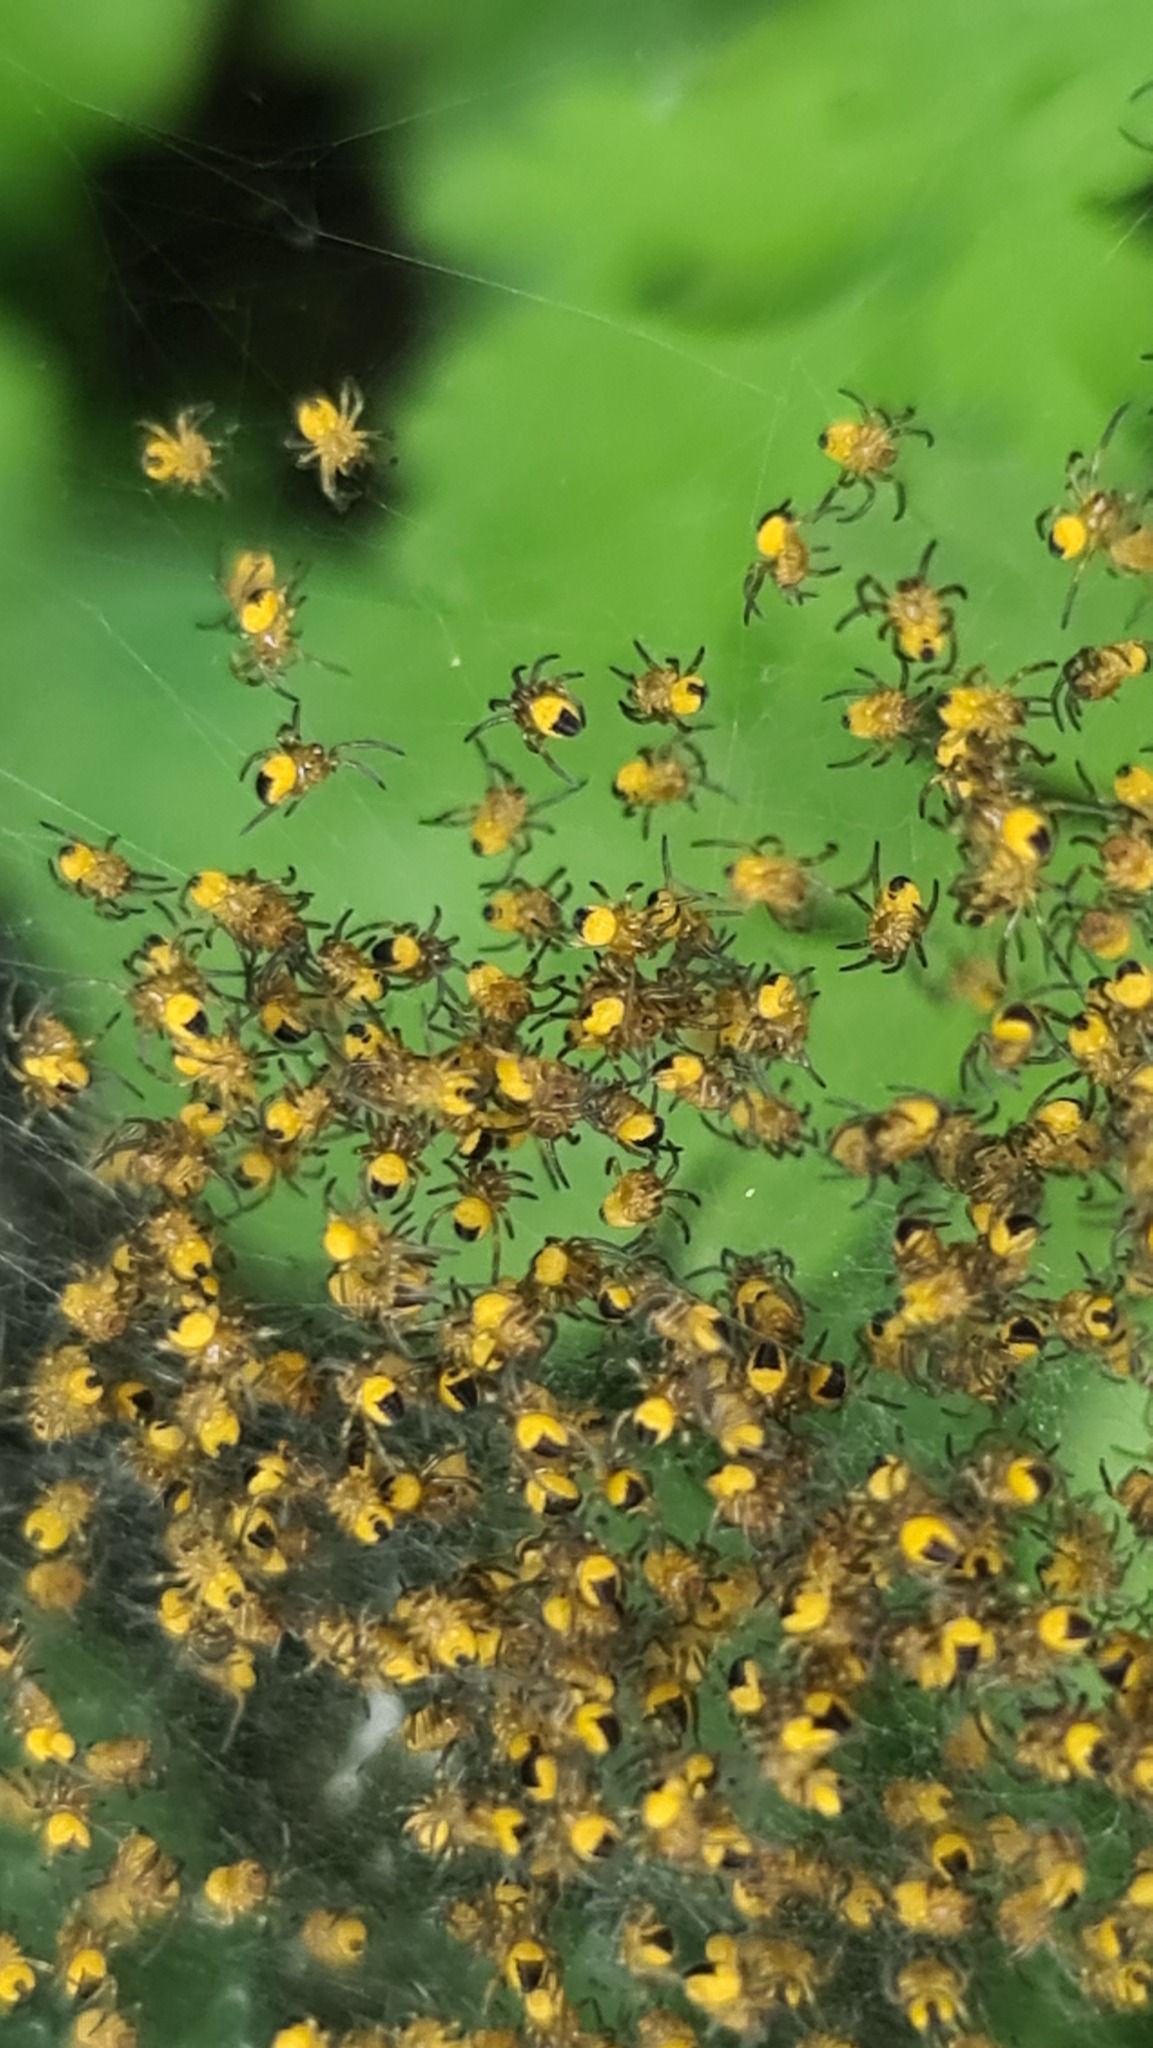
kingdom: Animalia
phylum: Arthropoda
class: Arachnida
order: Araneae
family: Araneidae
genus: Araneus
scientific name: Araneus diadematus
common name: Cross orbweaver
